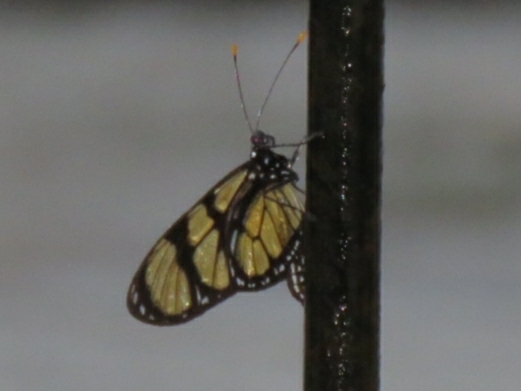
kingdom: Animalia
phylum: Arthropoda
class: Insecta
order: Lepidoptera
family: Nymphalidae
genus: Methona
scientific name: Methona themisto
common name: Themisto amberwing
